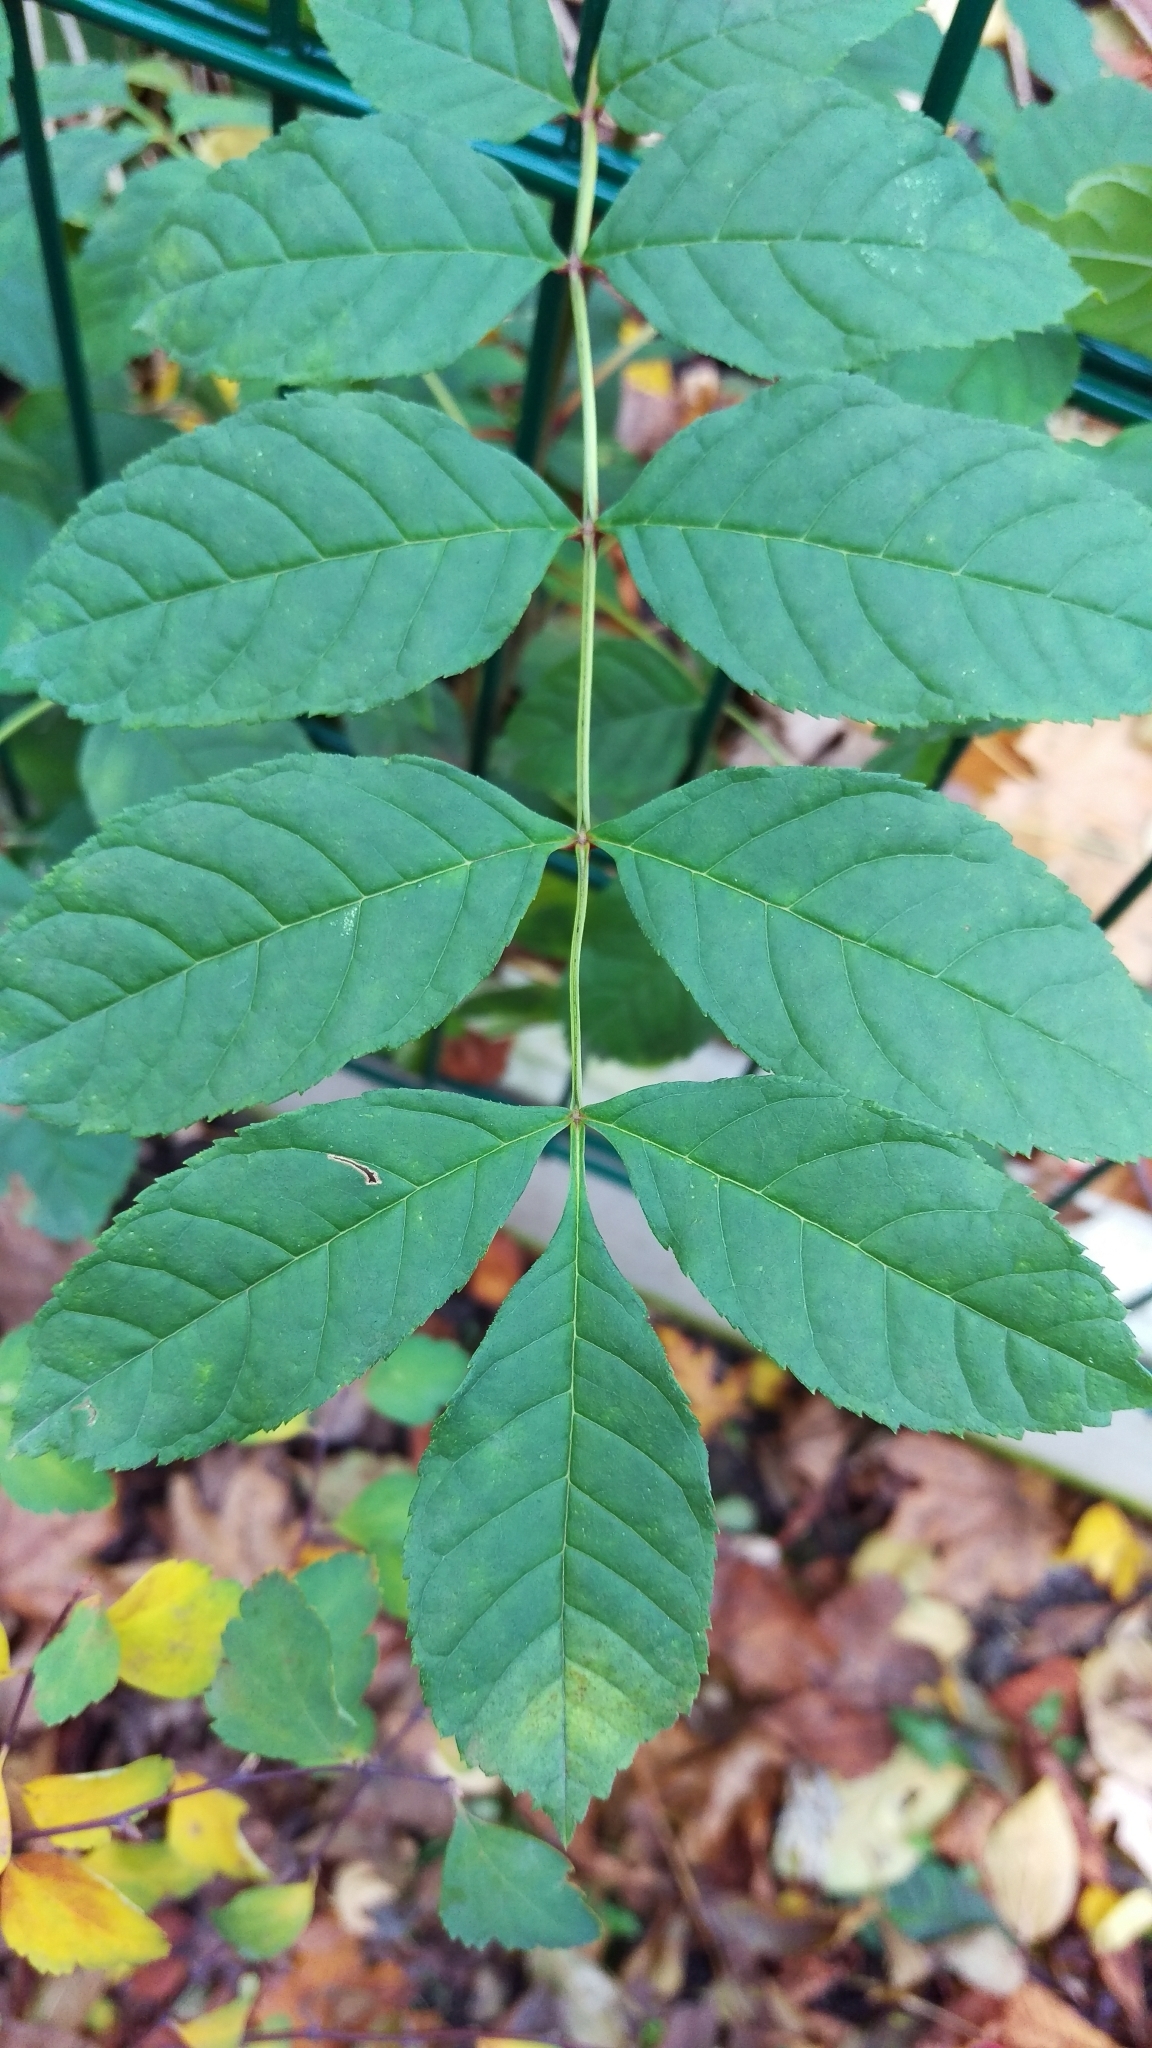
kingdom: Plantae
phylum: Tracheophyta
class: Magnoliopsida
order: Lamiales
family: Oleaceae
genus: Fraxinus
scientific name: Fraxinus excelsior
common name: European ash
